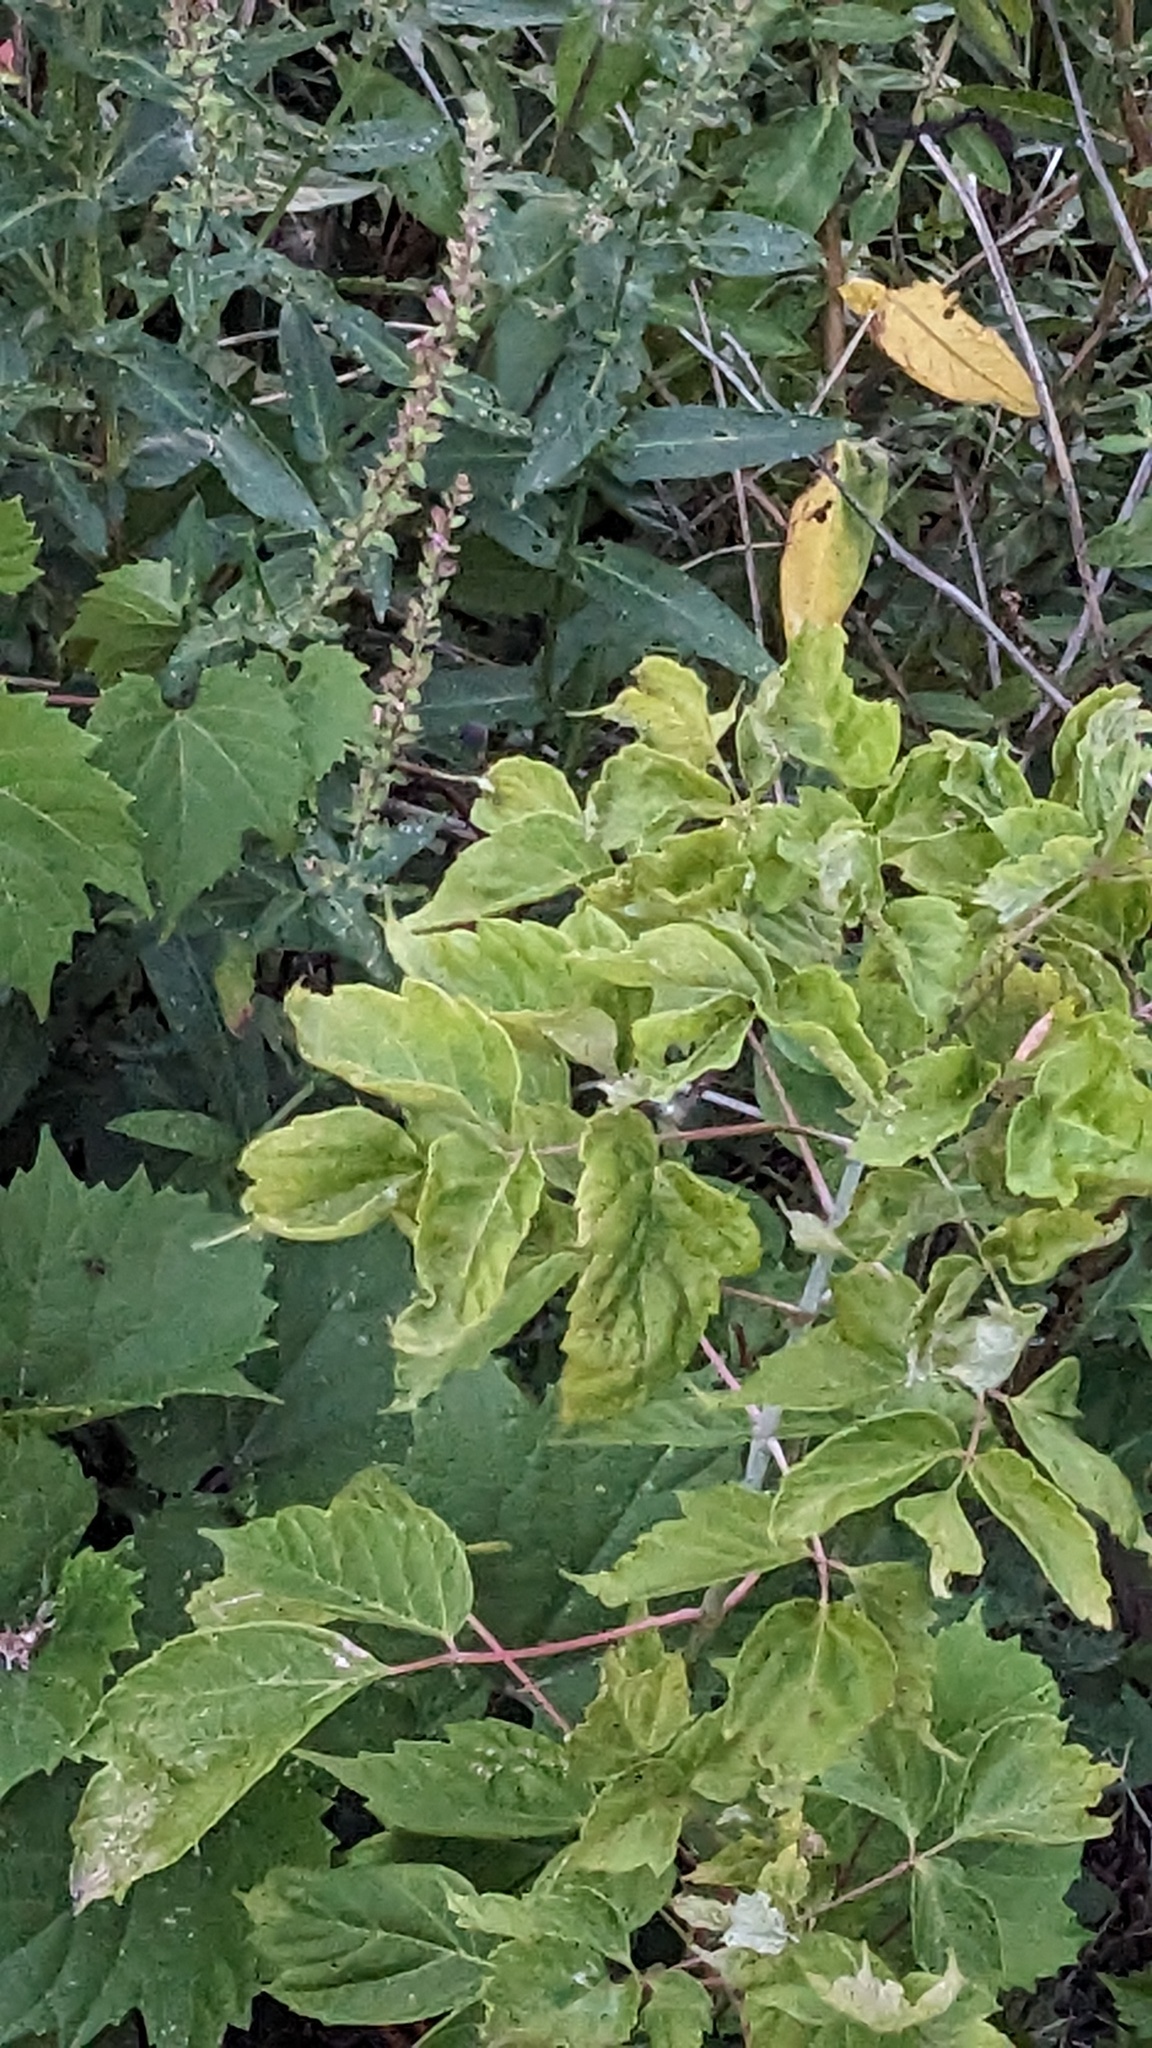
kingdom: Plantae
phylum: Tracheophyta
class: Magnoliopsida
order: Sapindales
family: Sapindaceae
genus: Acer
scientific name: Acer negundo
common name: Ashleaf maple
